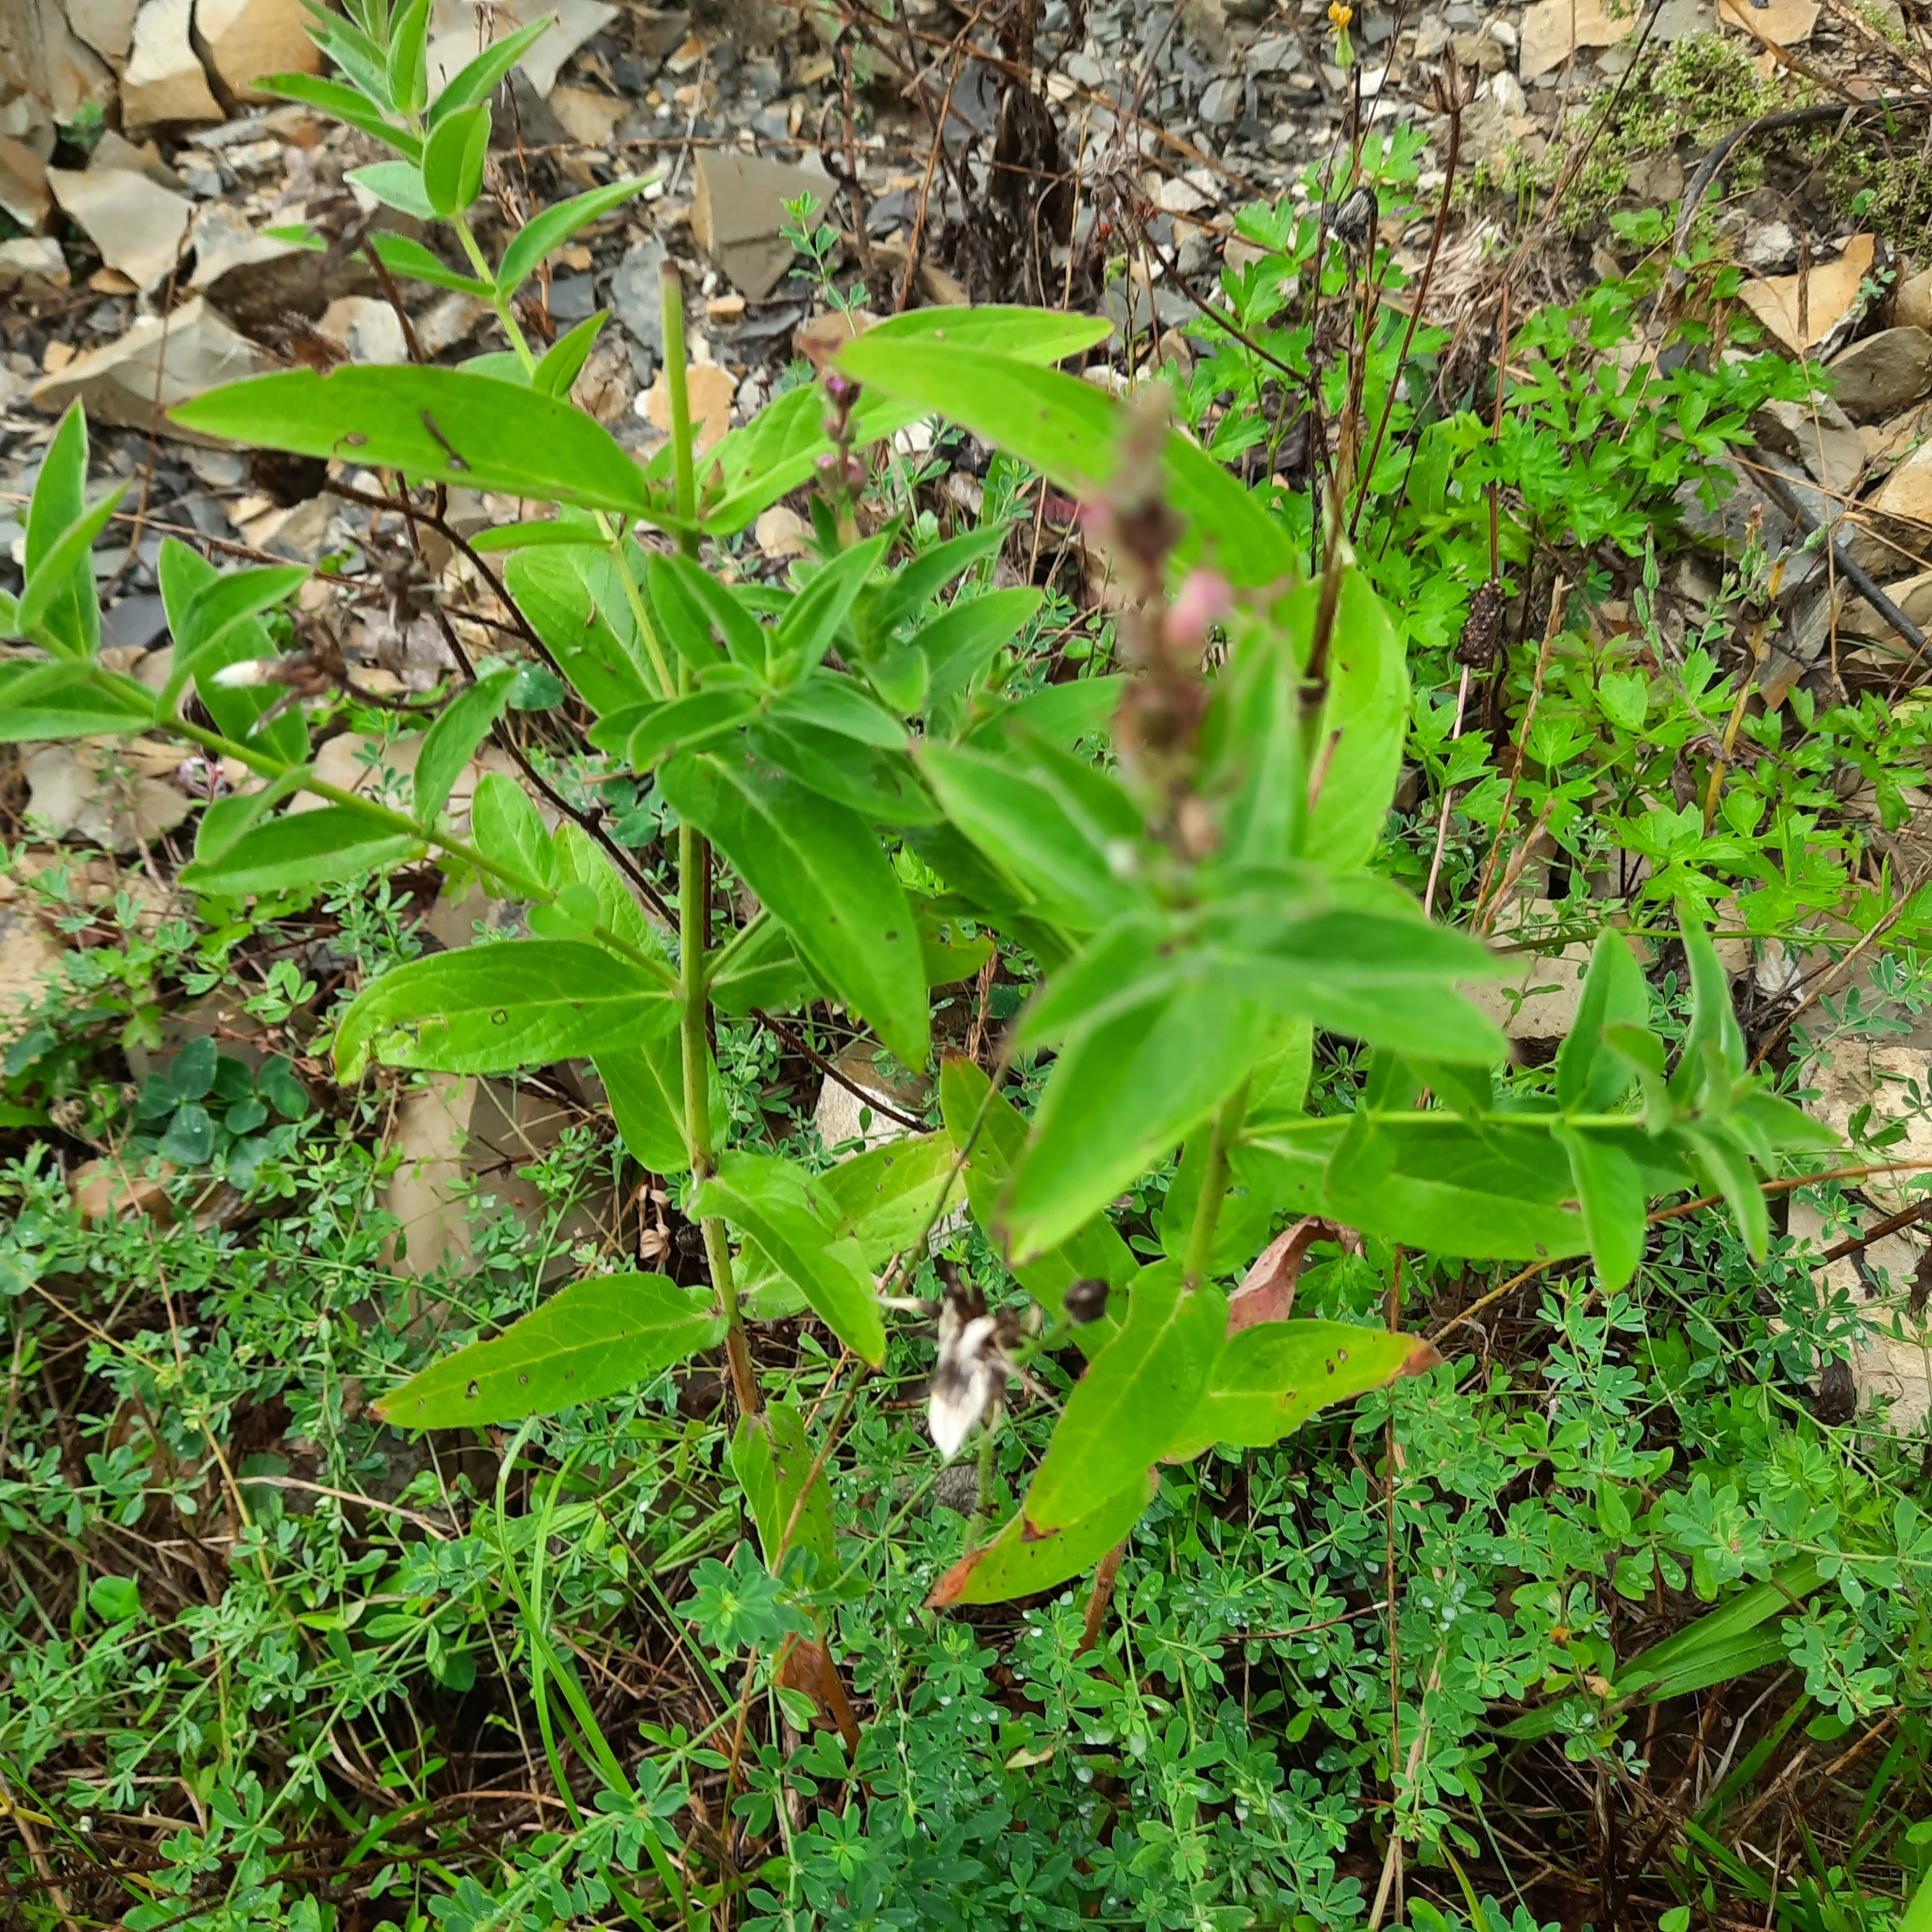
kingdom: Plantae
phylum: Tracheophyta
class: Magnoliopsida
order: Myrtales
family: Lythraceae
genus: Lythrum
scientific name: Lythrum salicaria
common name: Purple loosestrife
